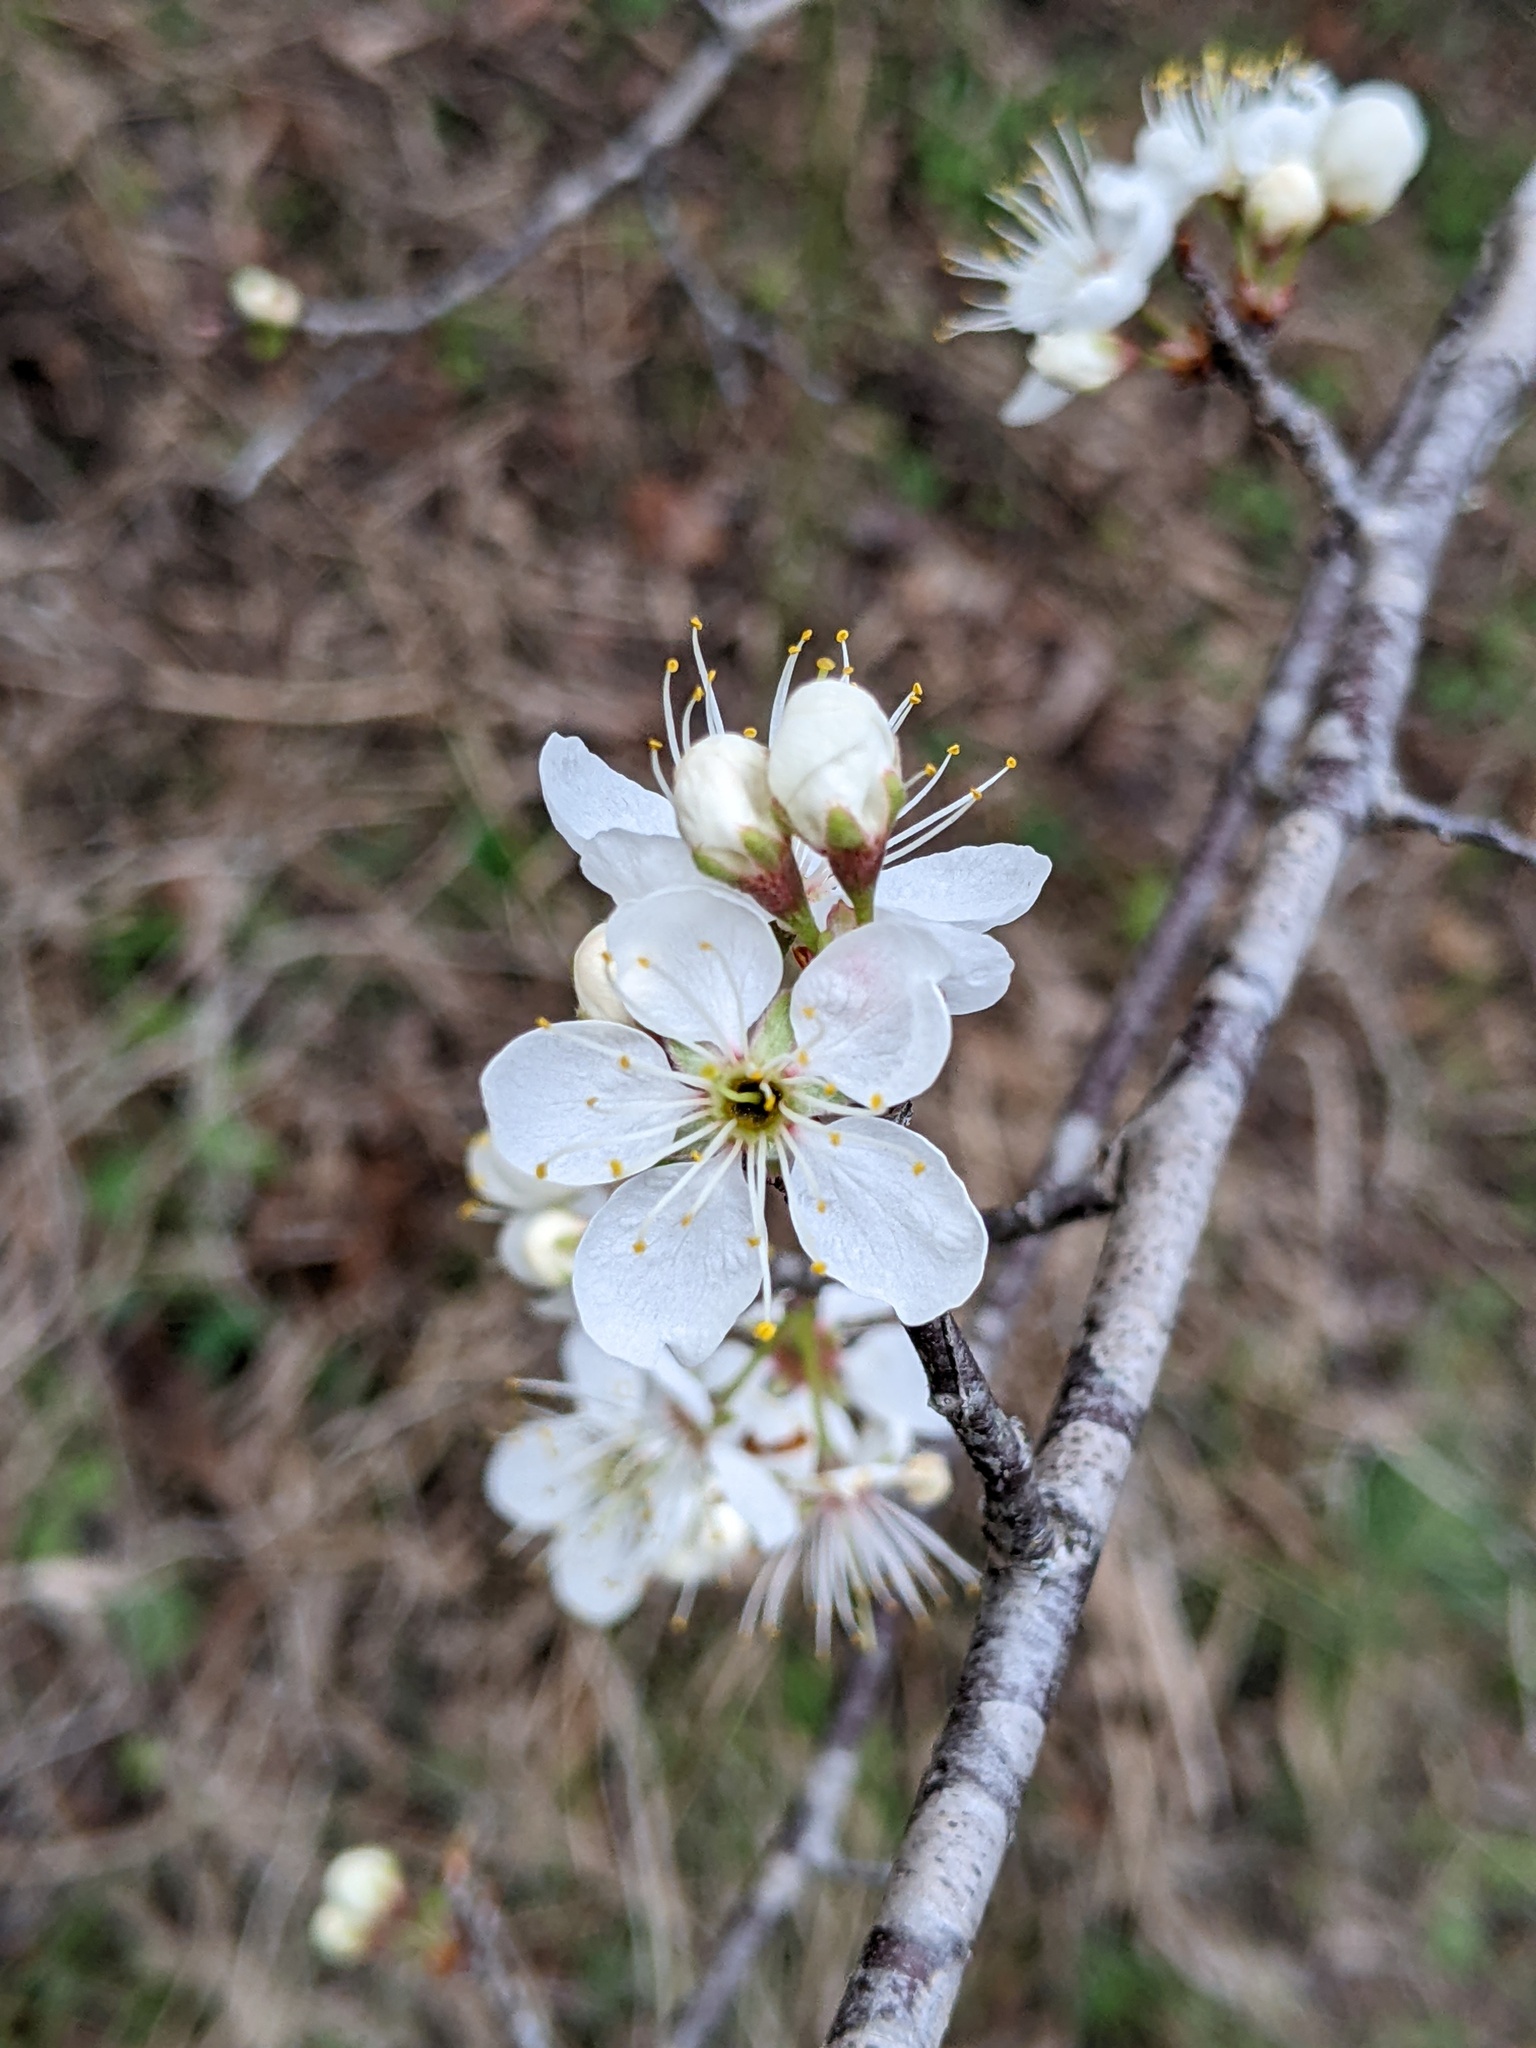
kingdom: Plantae
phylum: Tracheophyta
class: Magnoliopsida
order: Rosales
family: Rosaceae
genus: Prunus
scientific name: Prunus mexicana
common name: Mexican plum
